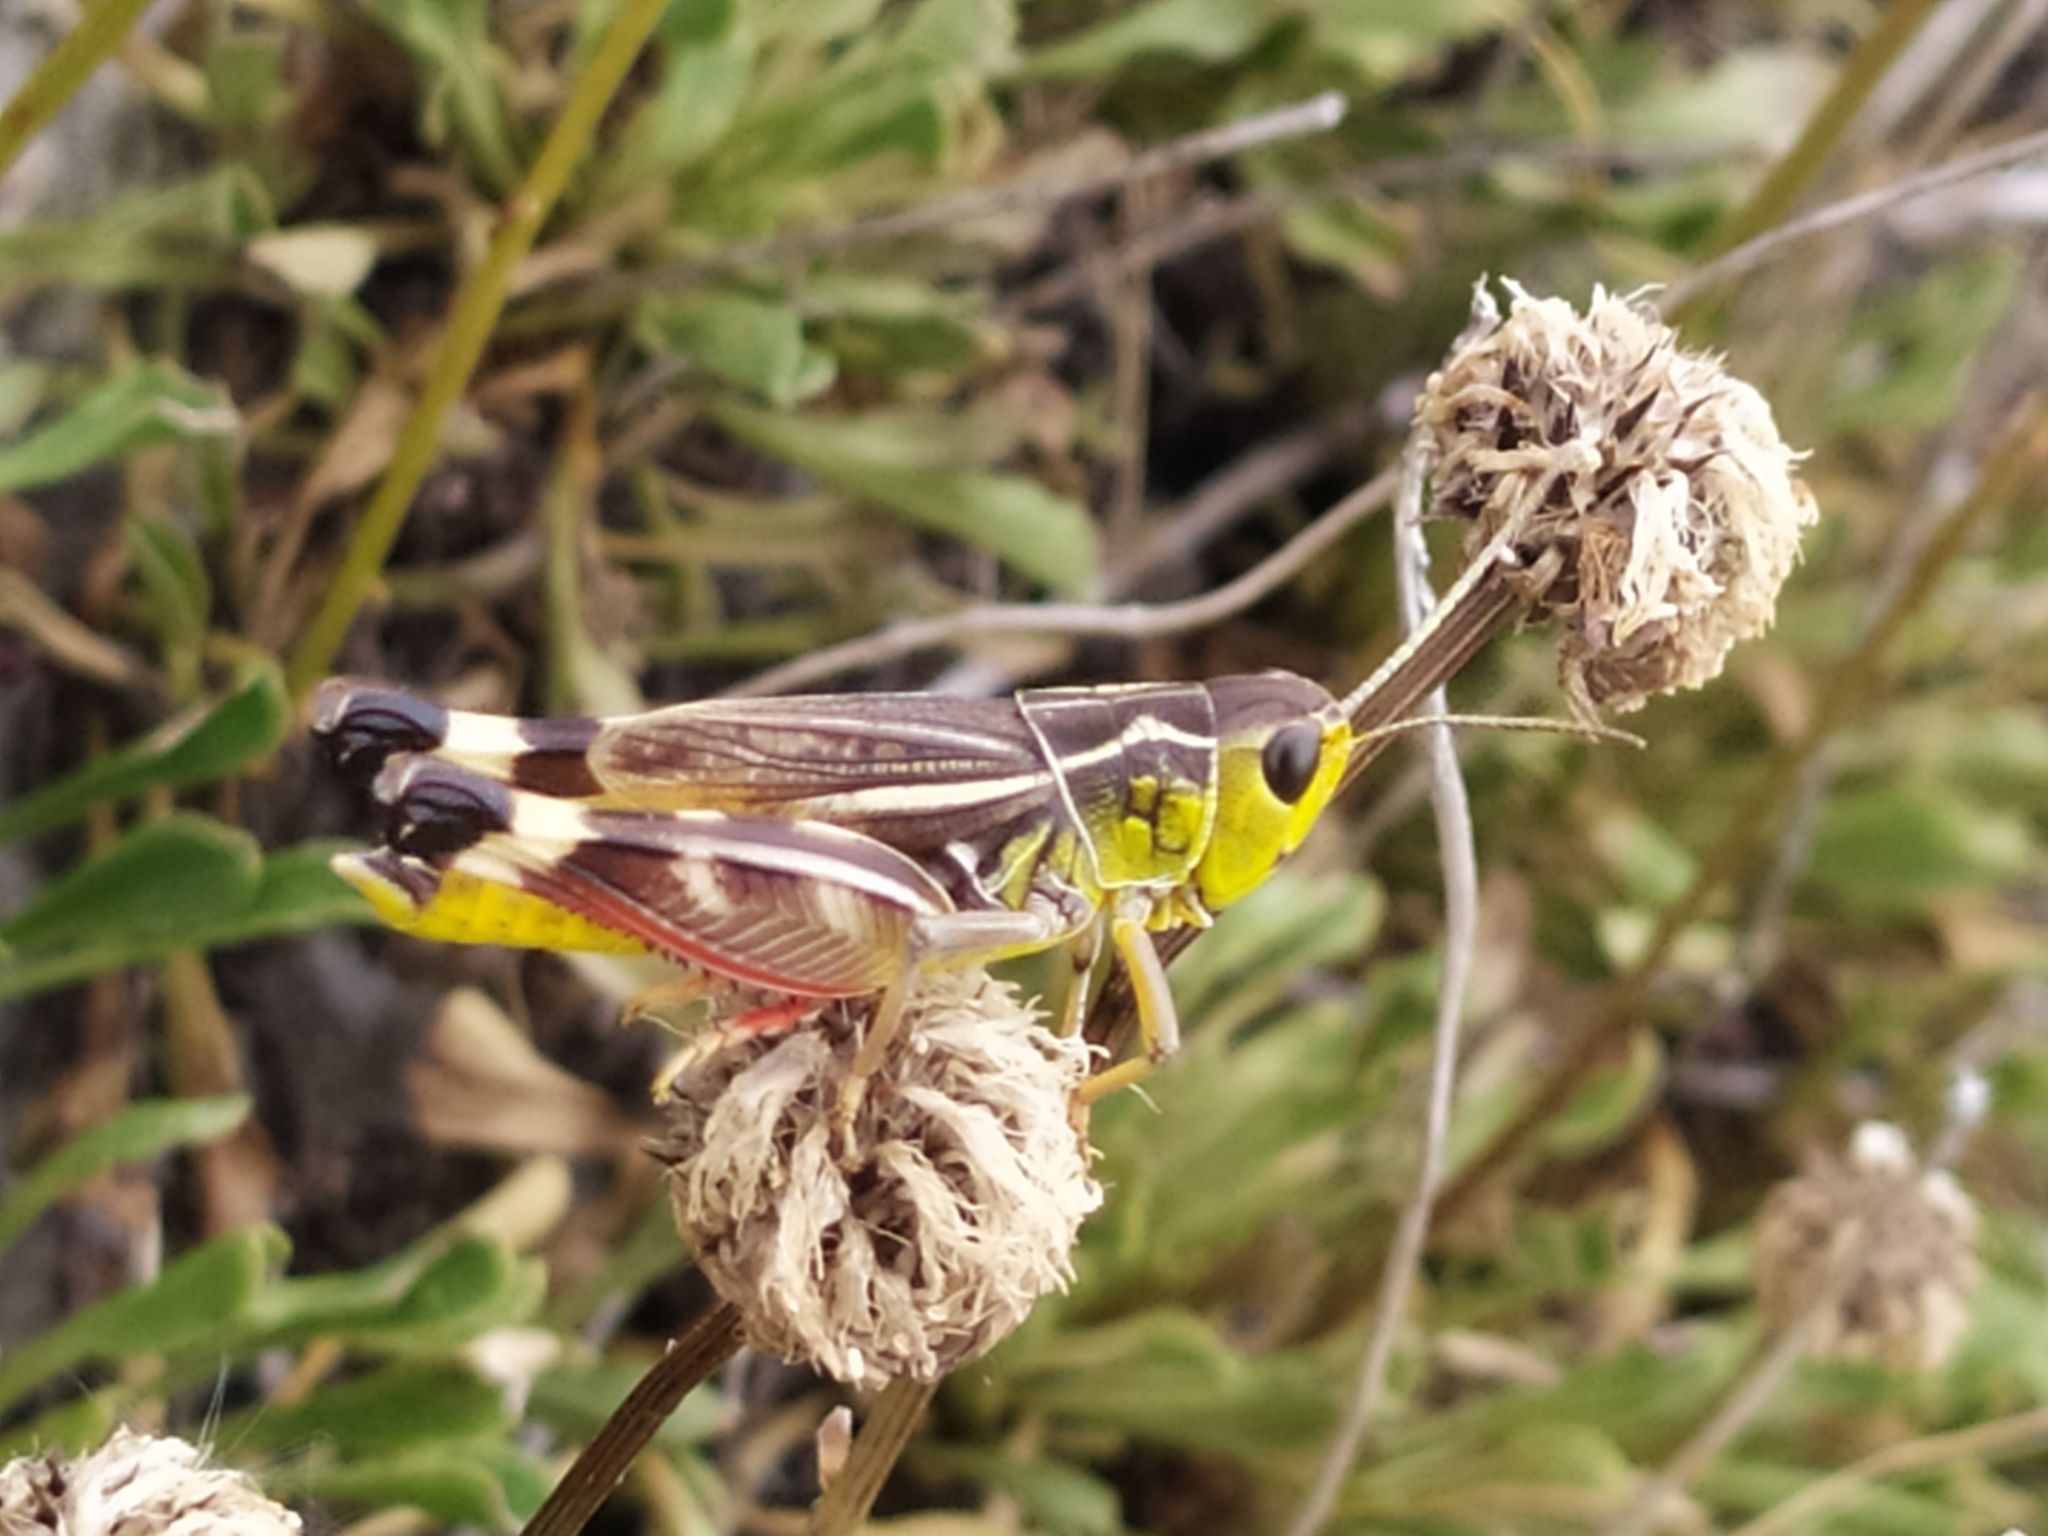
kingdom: Animalia
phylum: Arthropoda
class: Insecta
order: Orthoptera
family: Acrididae
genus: Arcyptera
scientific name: Arcyptera brevipennis
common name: Western banded grasshopper
